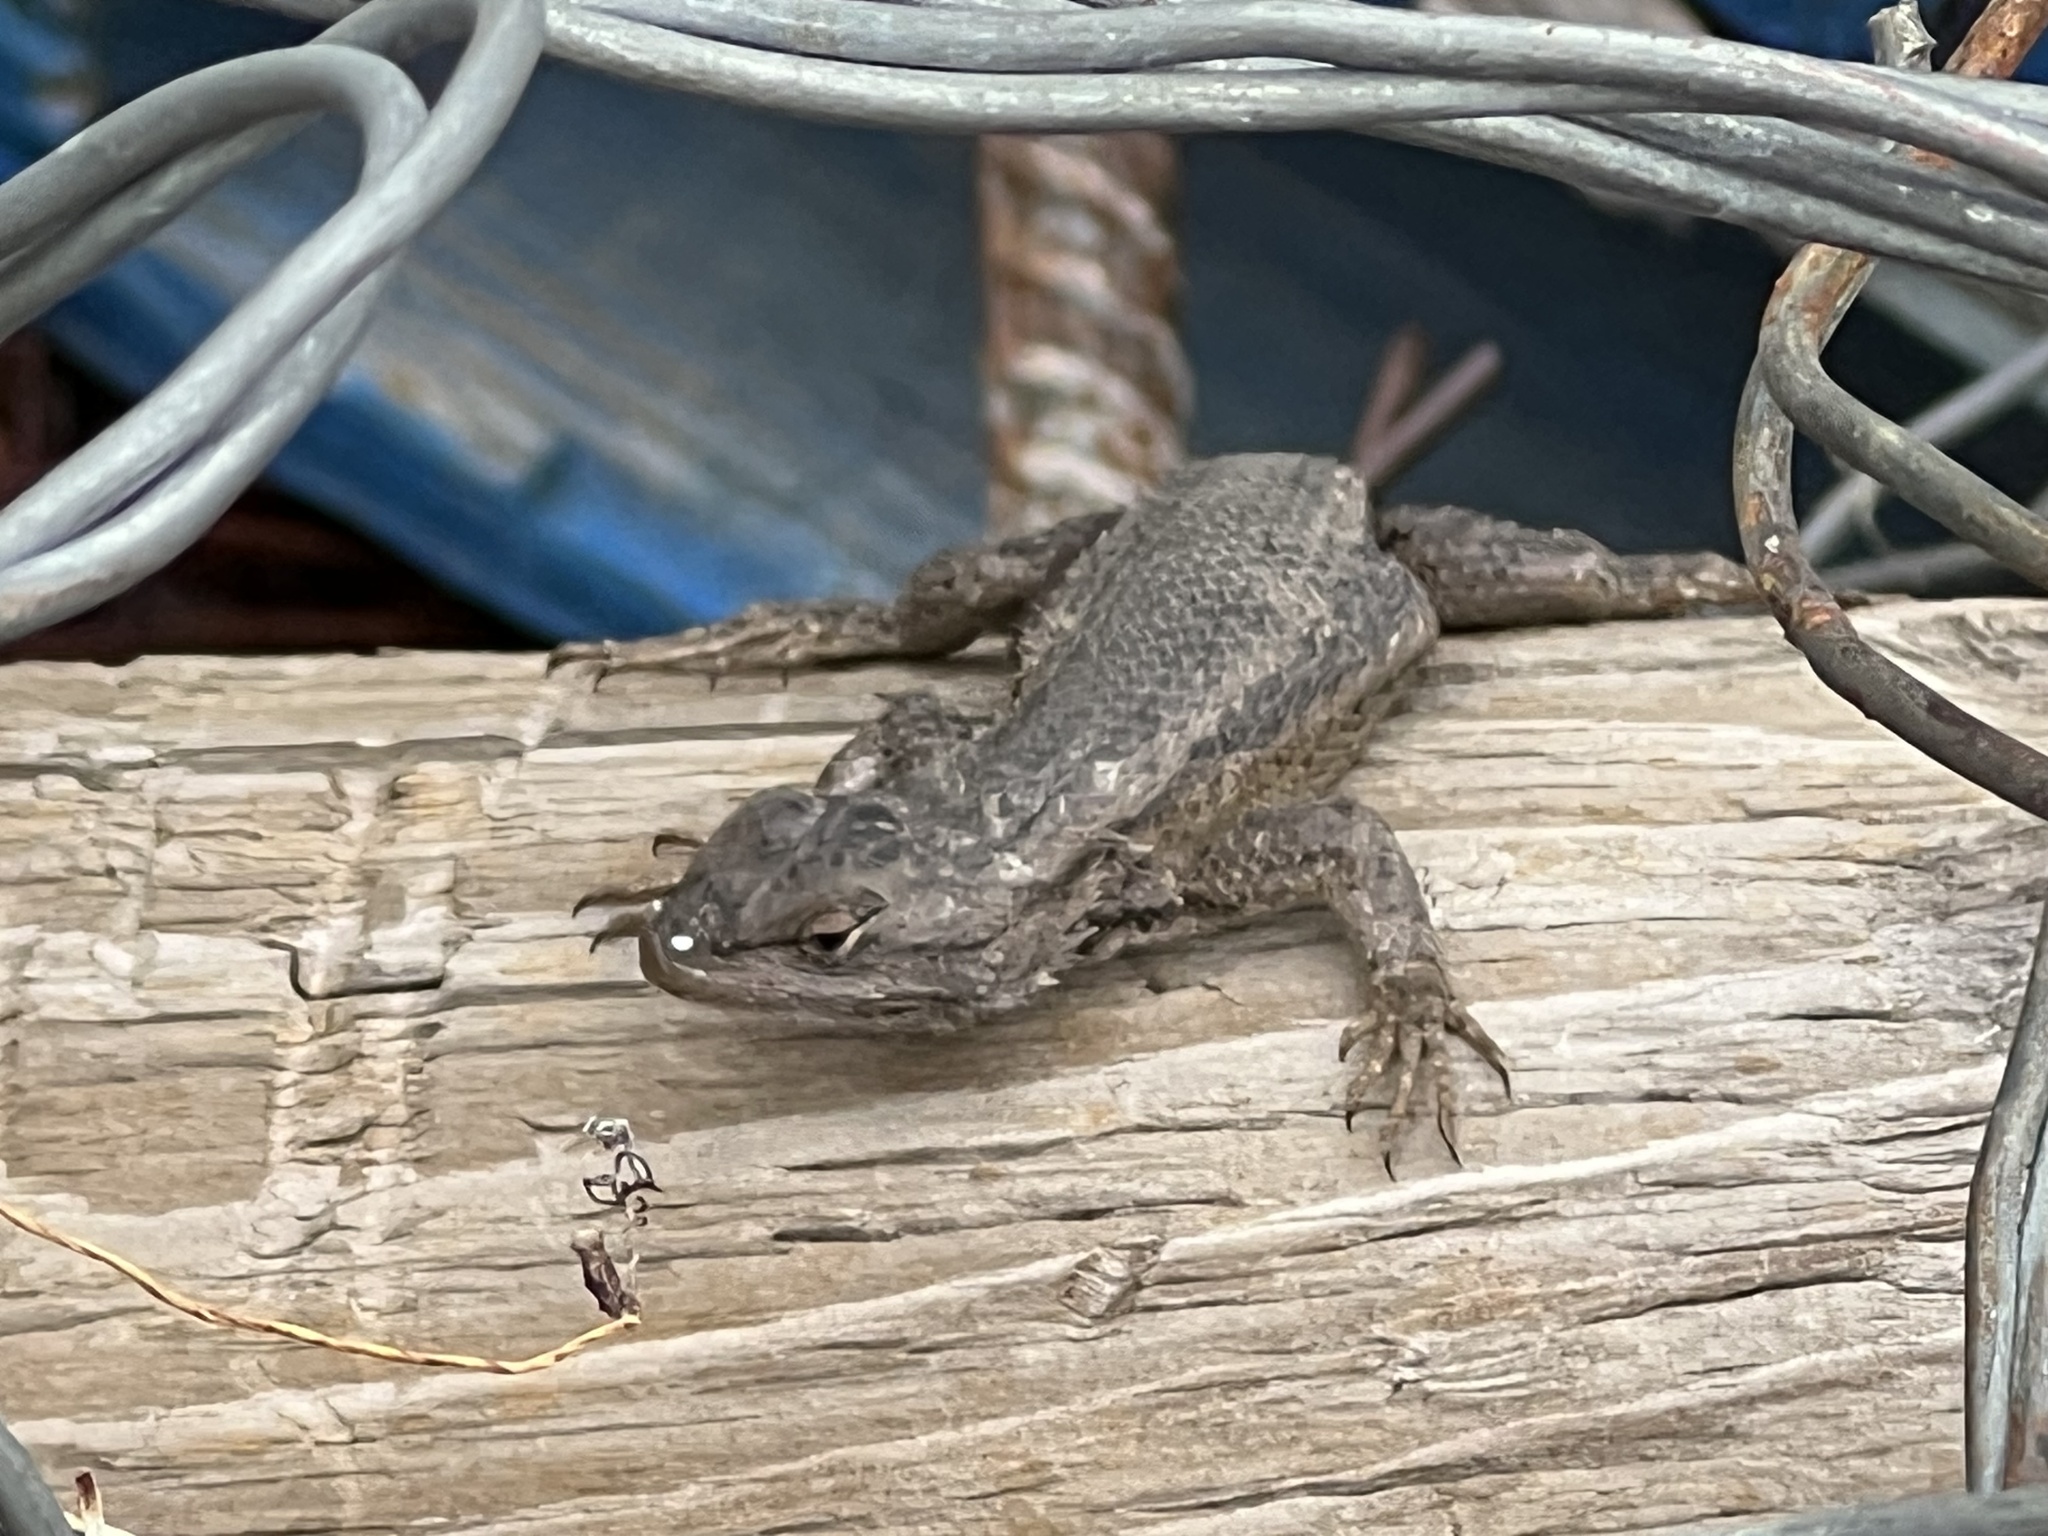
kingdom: Animalia
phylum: Chordata
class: Squamata
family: Phrynosomatidae
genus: Sceloporus
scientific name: Sceloporus cowlesi
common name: White sands prairie lizard
